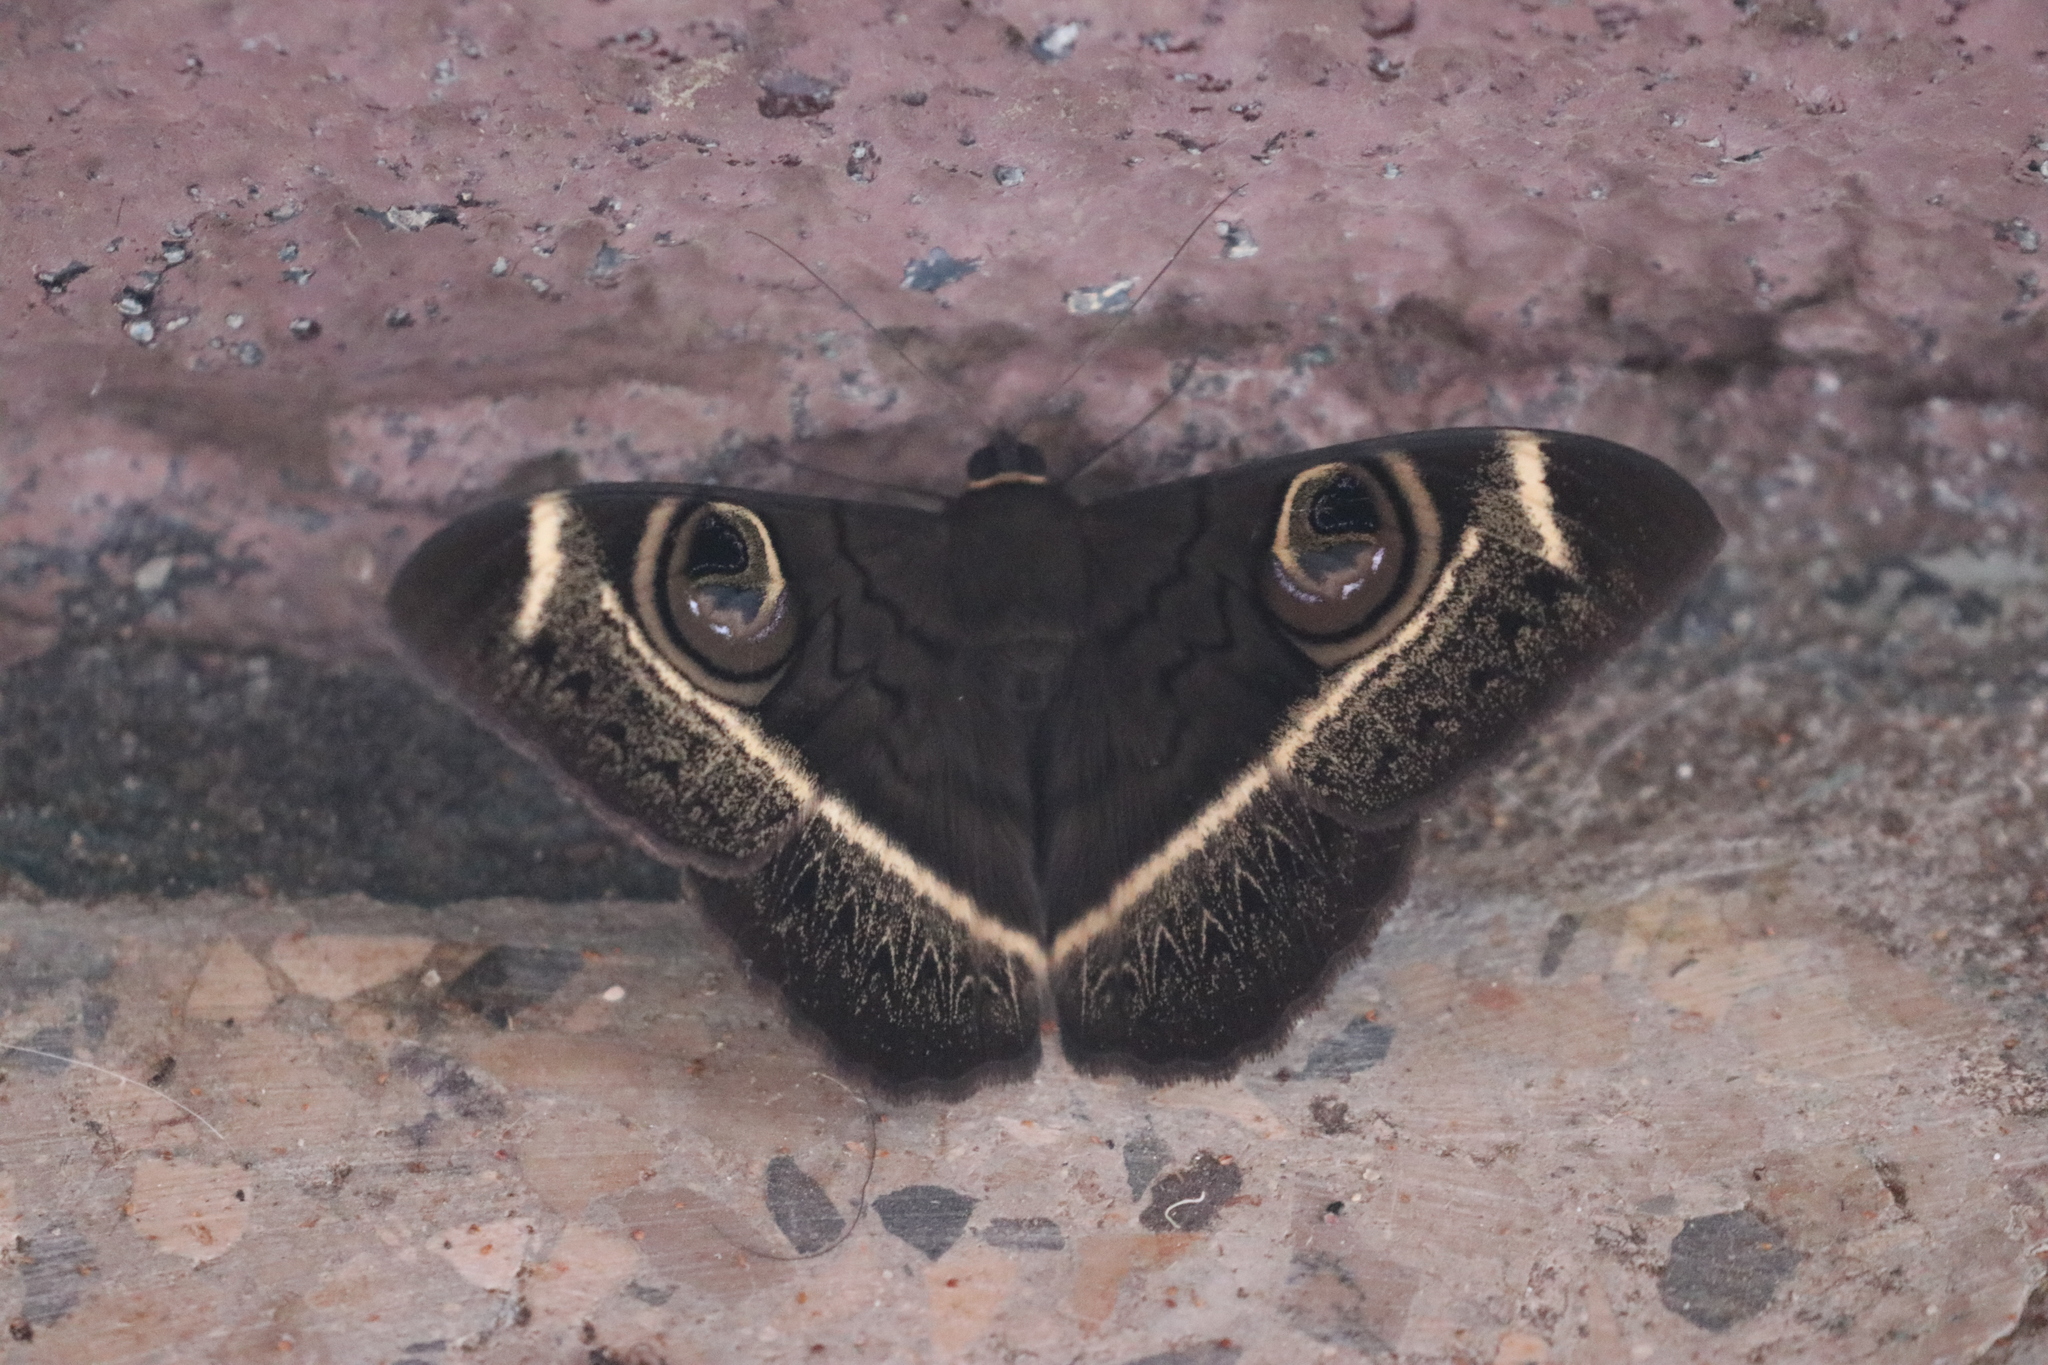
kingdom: Animalia
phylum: Arthropoda
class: Insecta
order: Lepidoptera
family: Erebidae
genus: Cyligramma
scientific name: Cyligramma latona
